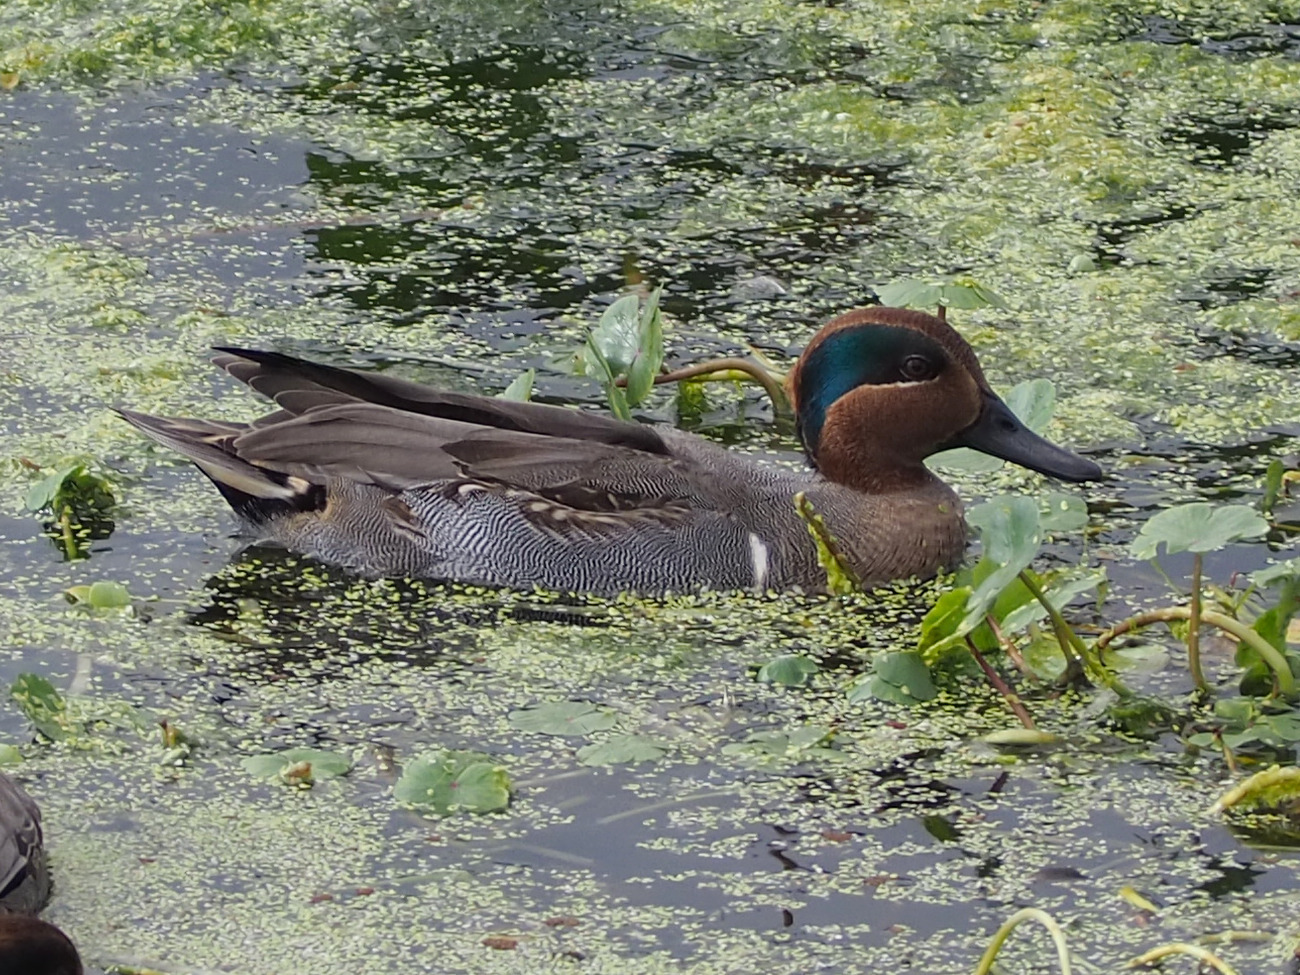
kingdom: Animalia
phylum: Chordata
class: Aves
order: Anseriformes
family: Anatidae
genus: Anas
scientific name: Anas crecca
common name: Eurasian teal
